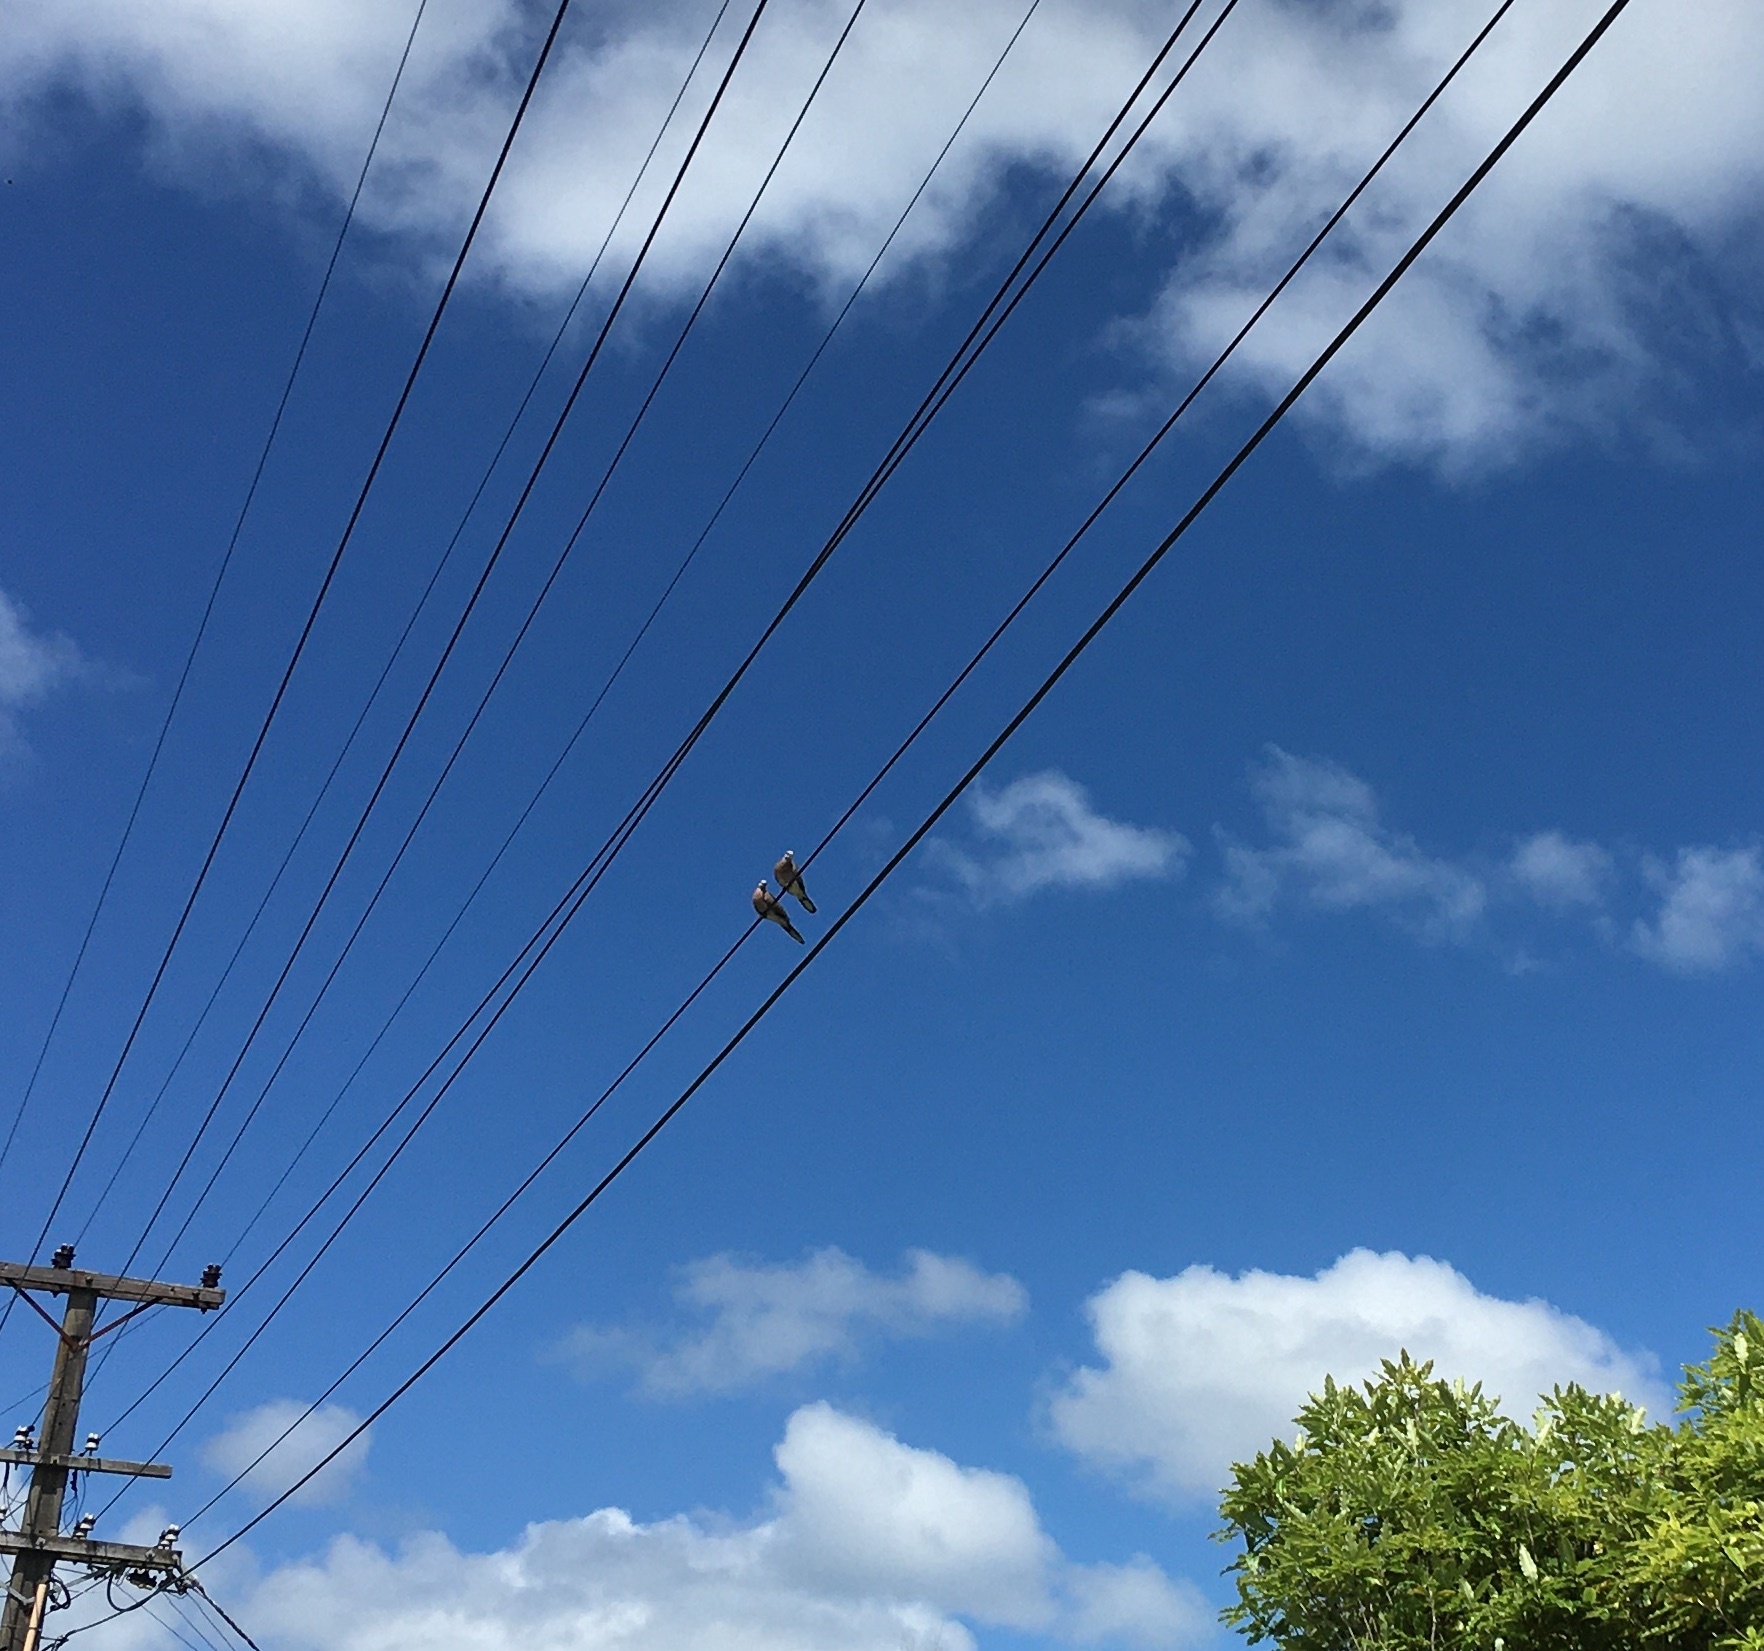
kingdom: Animalia
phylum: Chordata
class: Aves
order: Columbiformes
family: Columbidae
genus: Spilopelia
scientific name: Spilopelia chinensis
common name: Spotted dove
